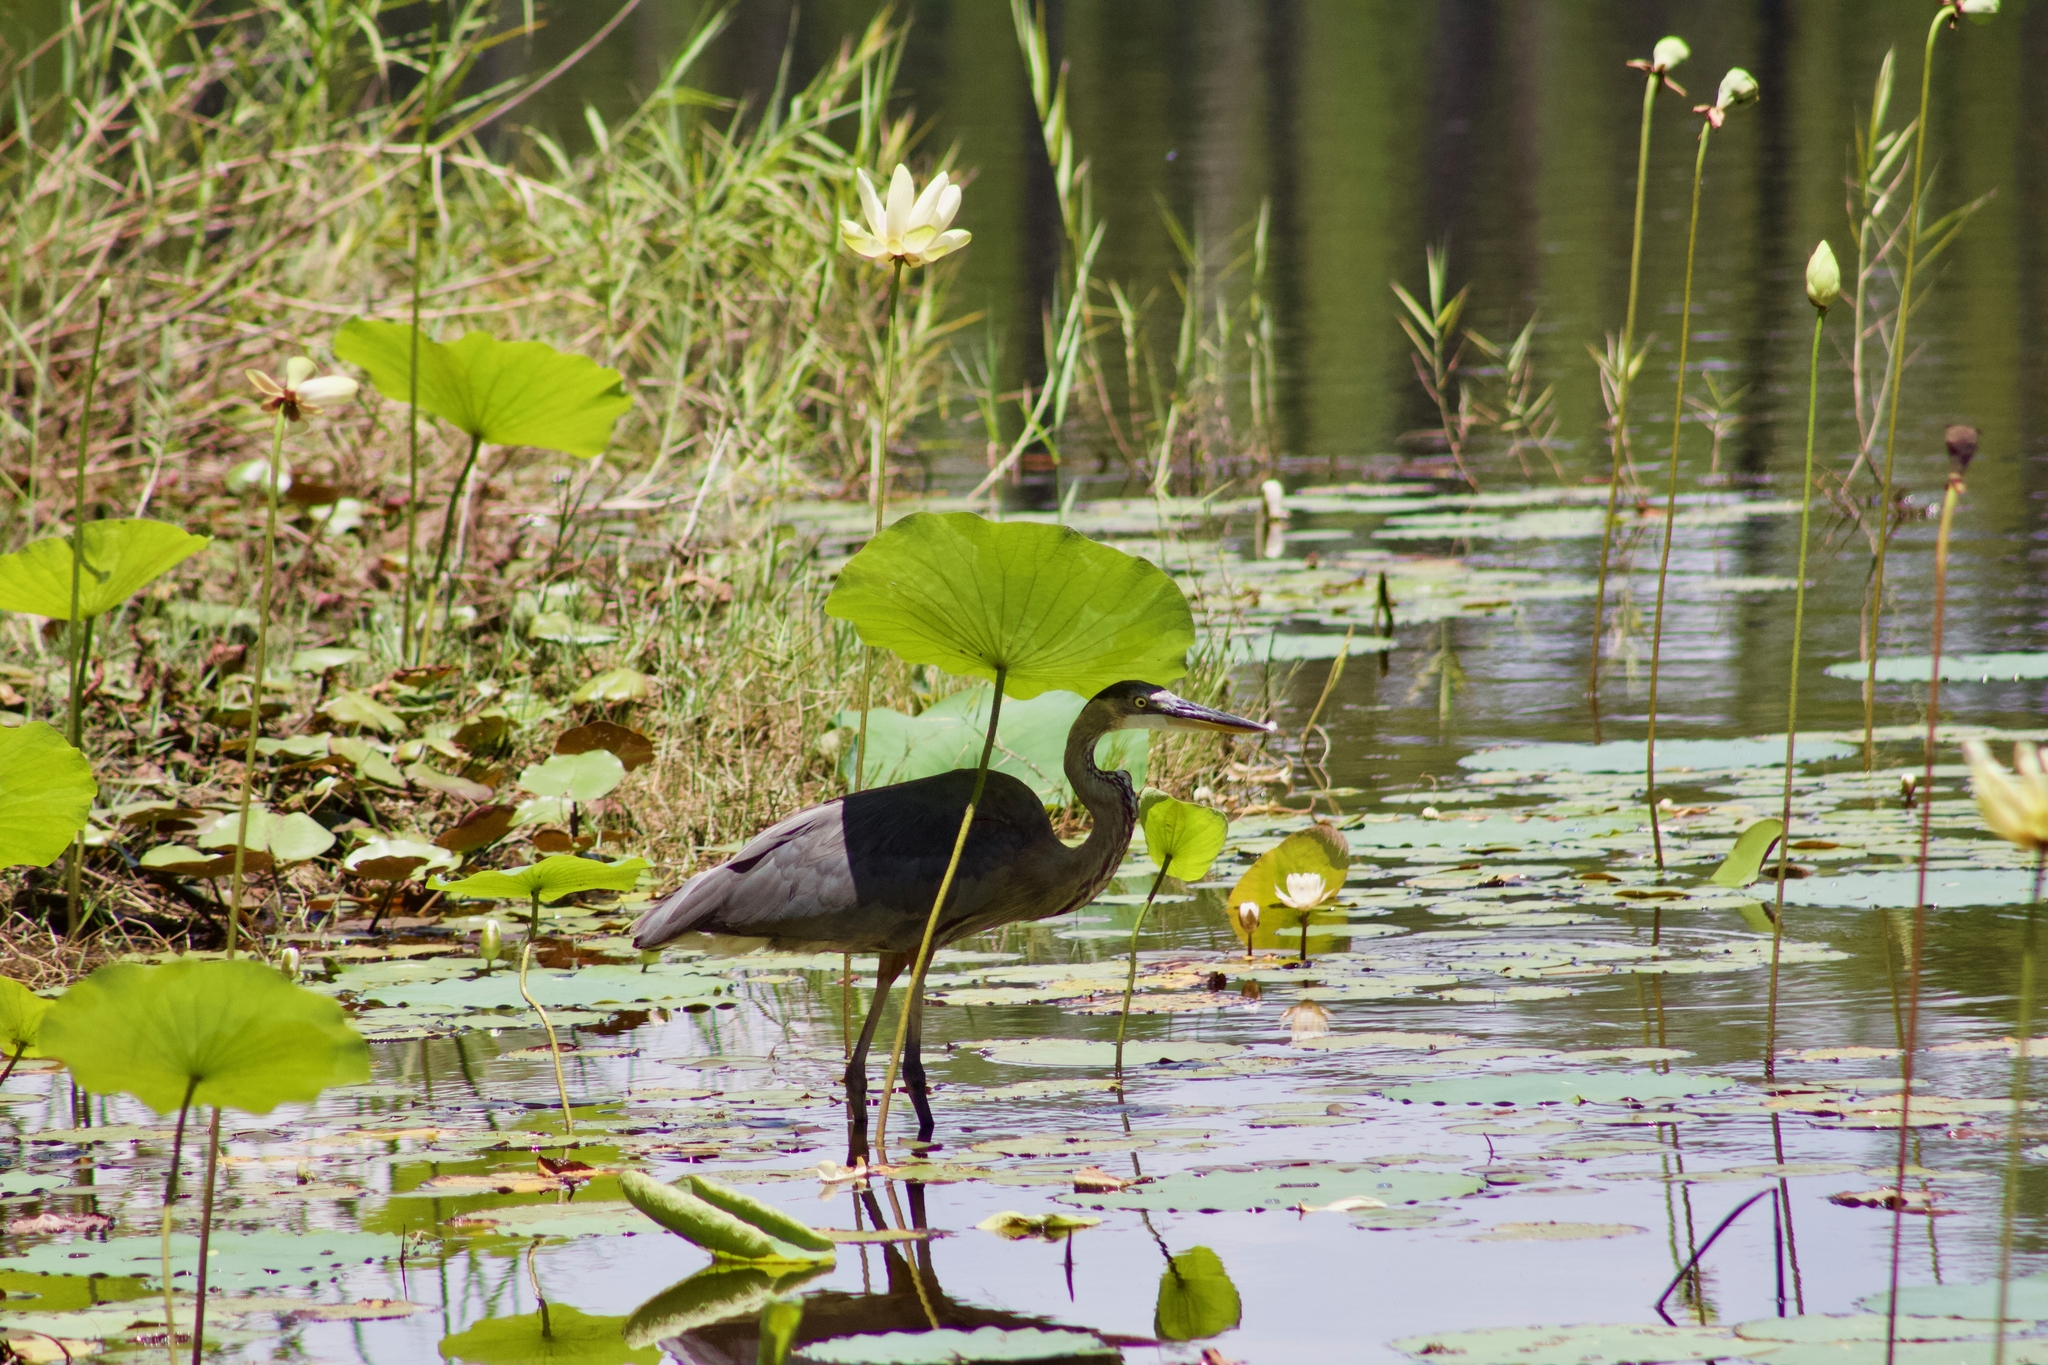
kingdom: Animalia
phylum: Chordata
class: Aves
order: Pelecaniformes
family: Ardeidae
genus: Ardea
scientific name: Ardea herodias
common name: Great blue heron
